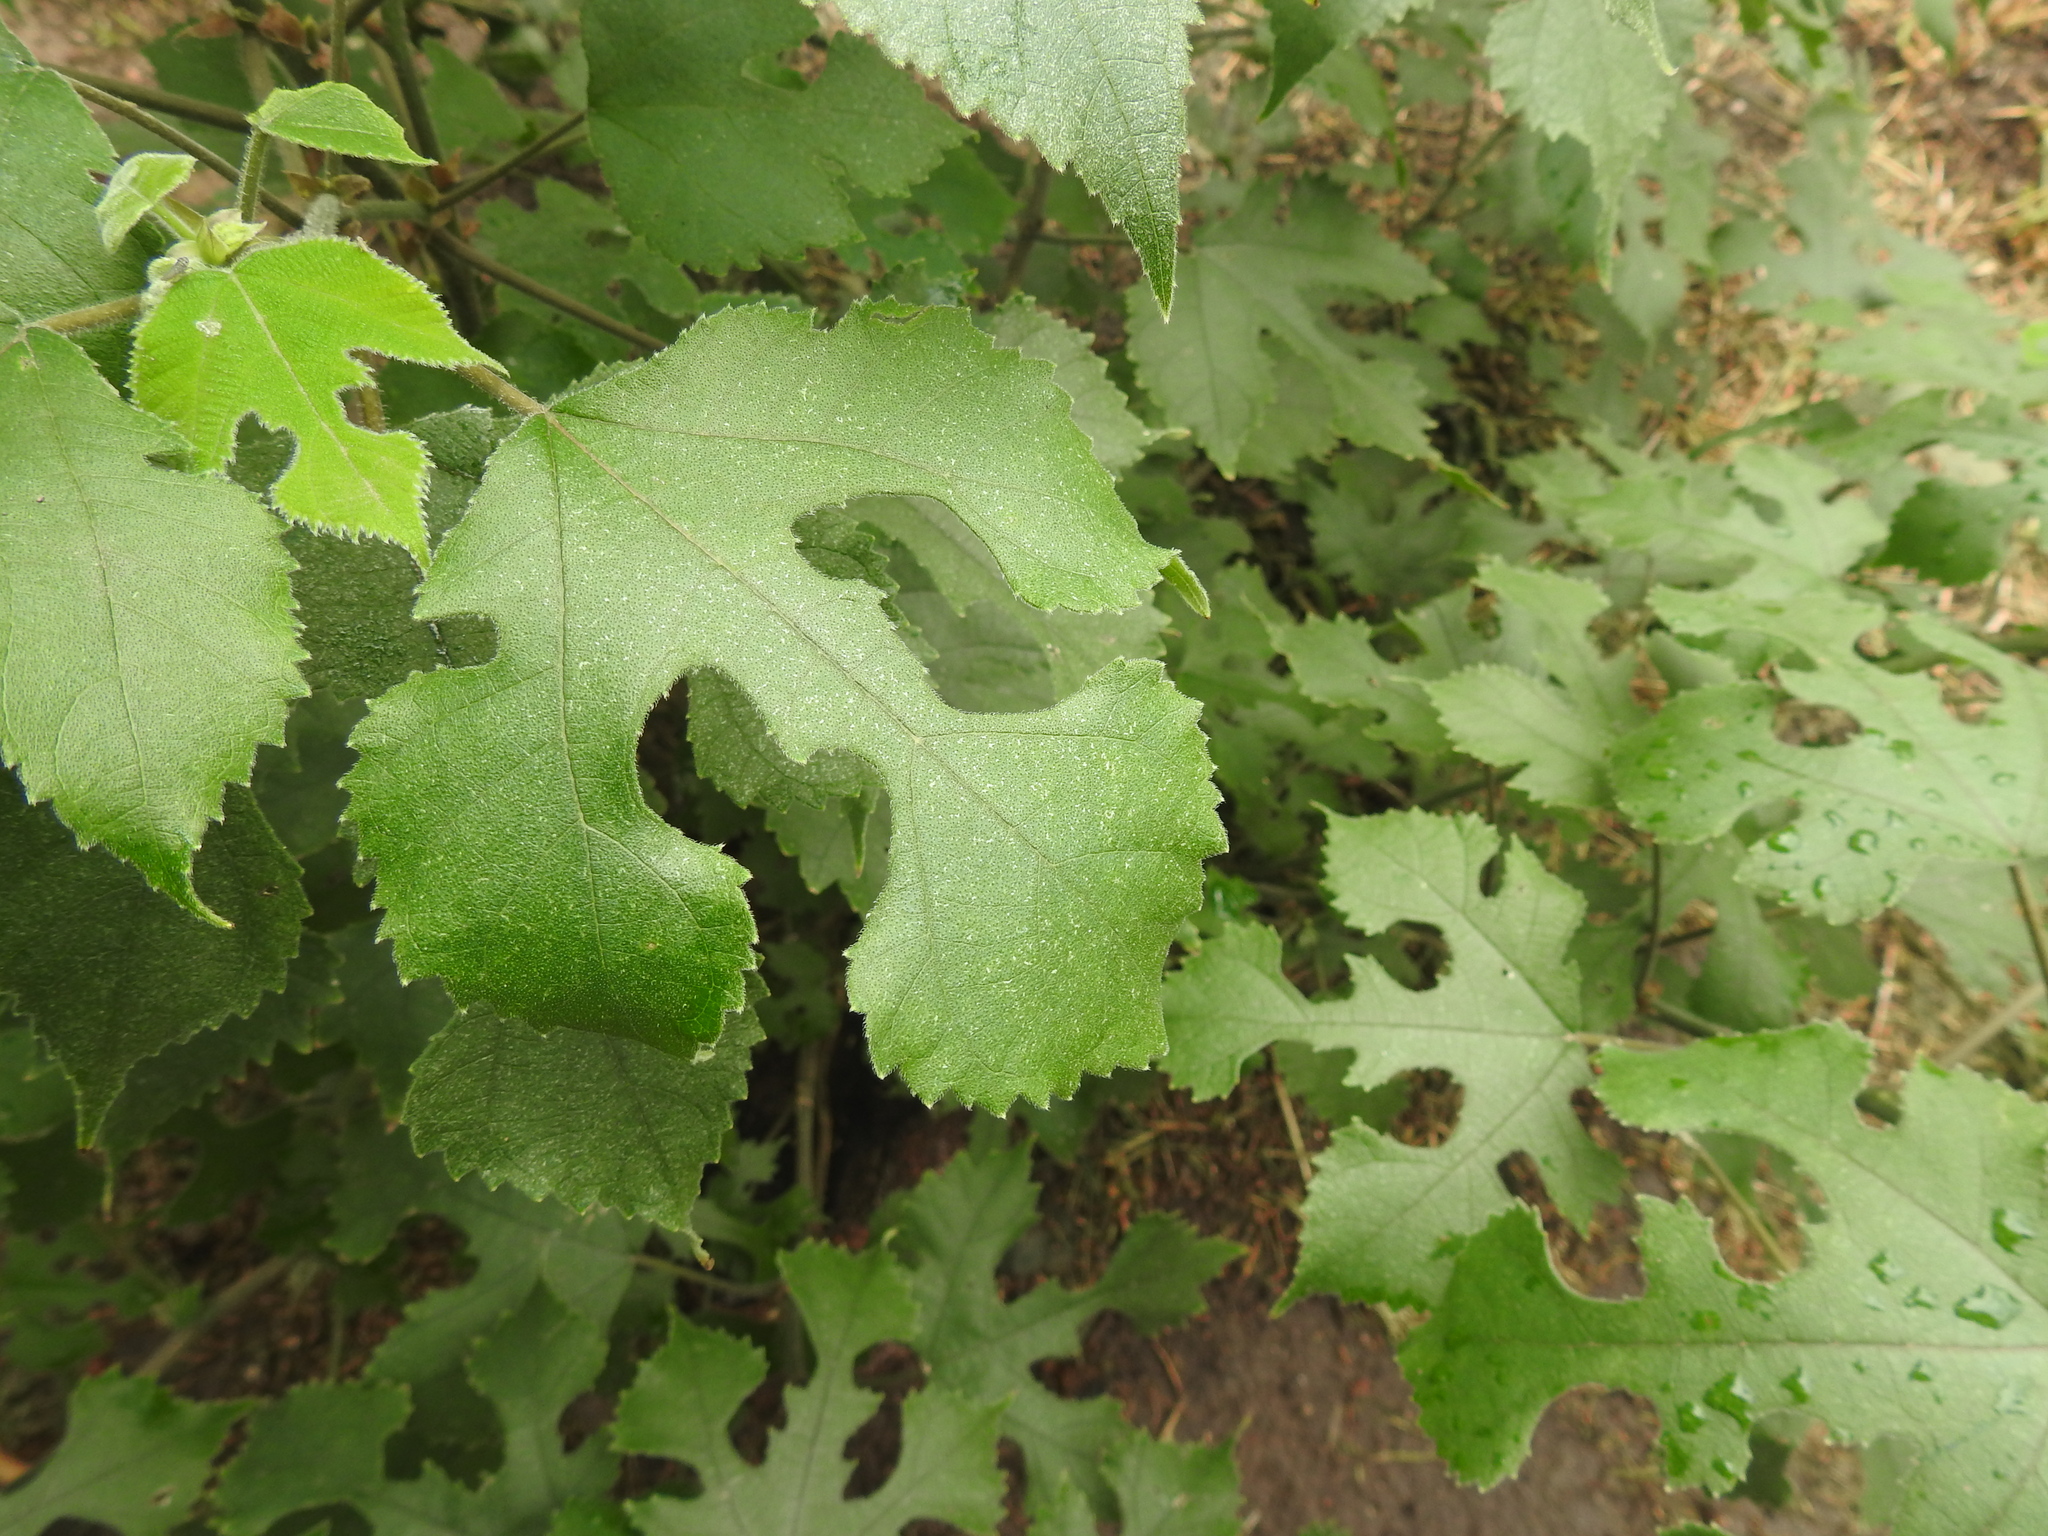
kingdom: Plantae
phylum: Tracheophyta
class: Magnoliopsida
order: Rosales
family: Moraceae
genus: Broussonetia
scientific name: Broussonetia papyrifera
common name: Paper mulberry
